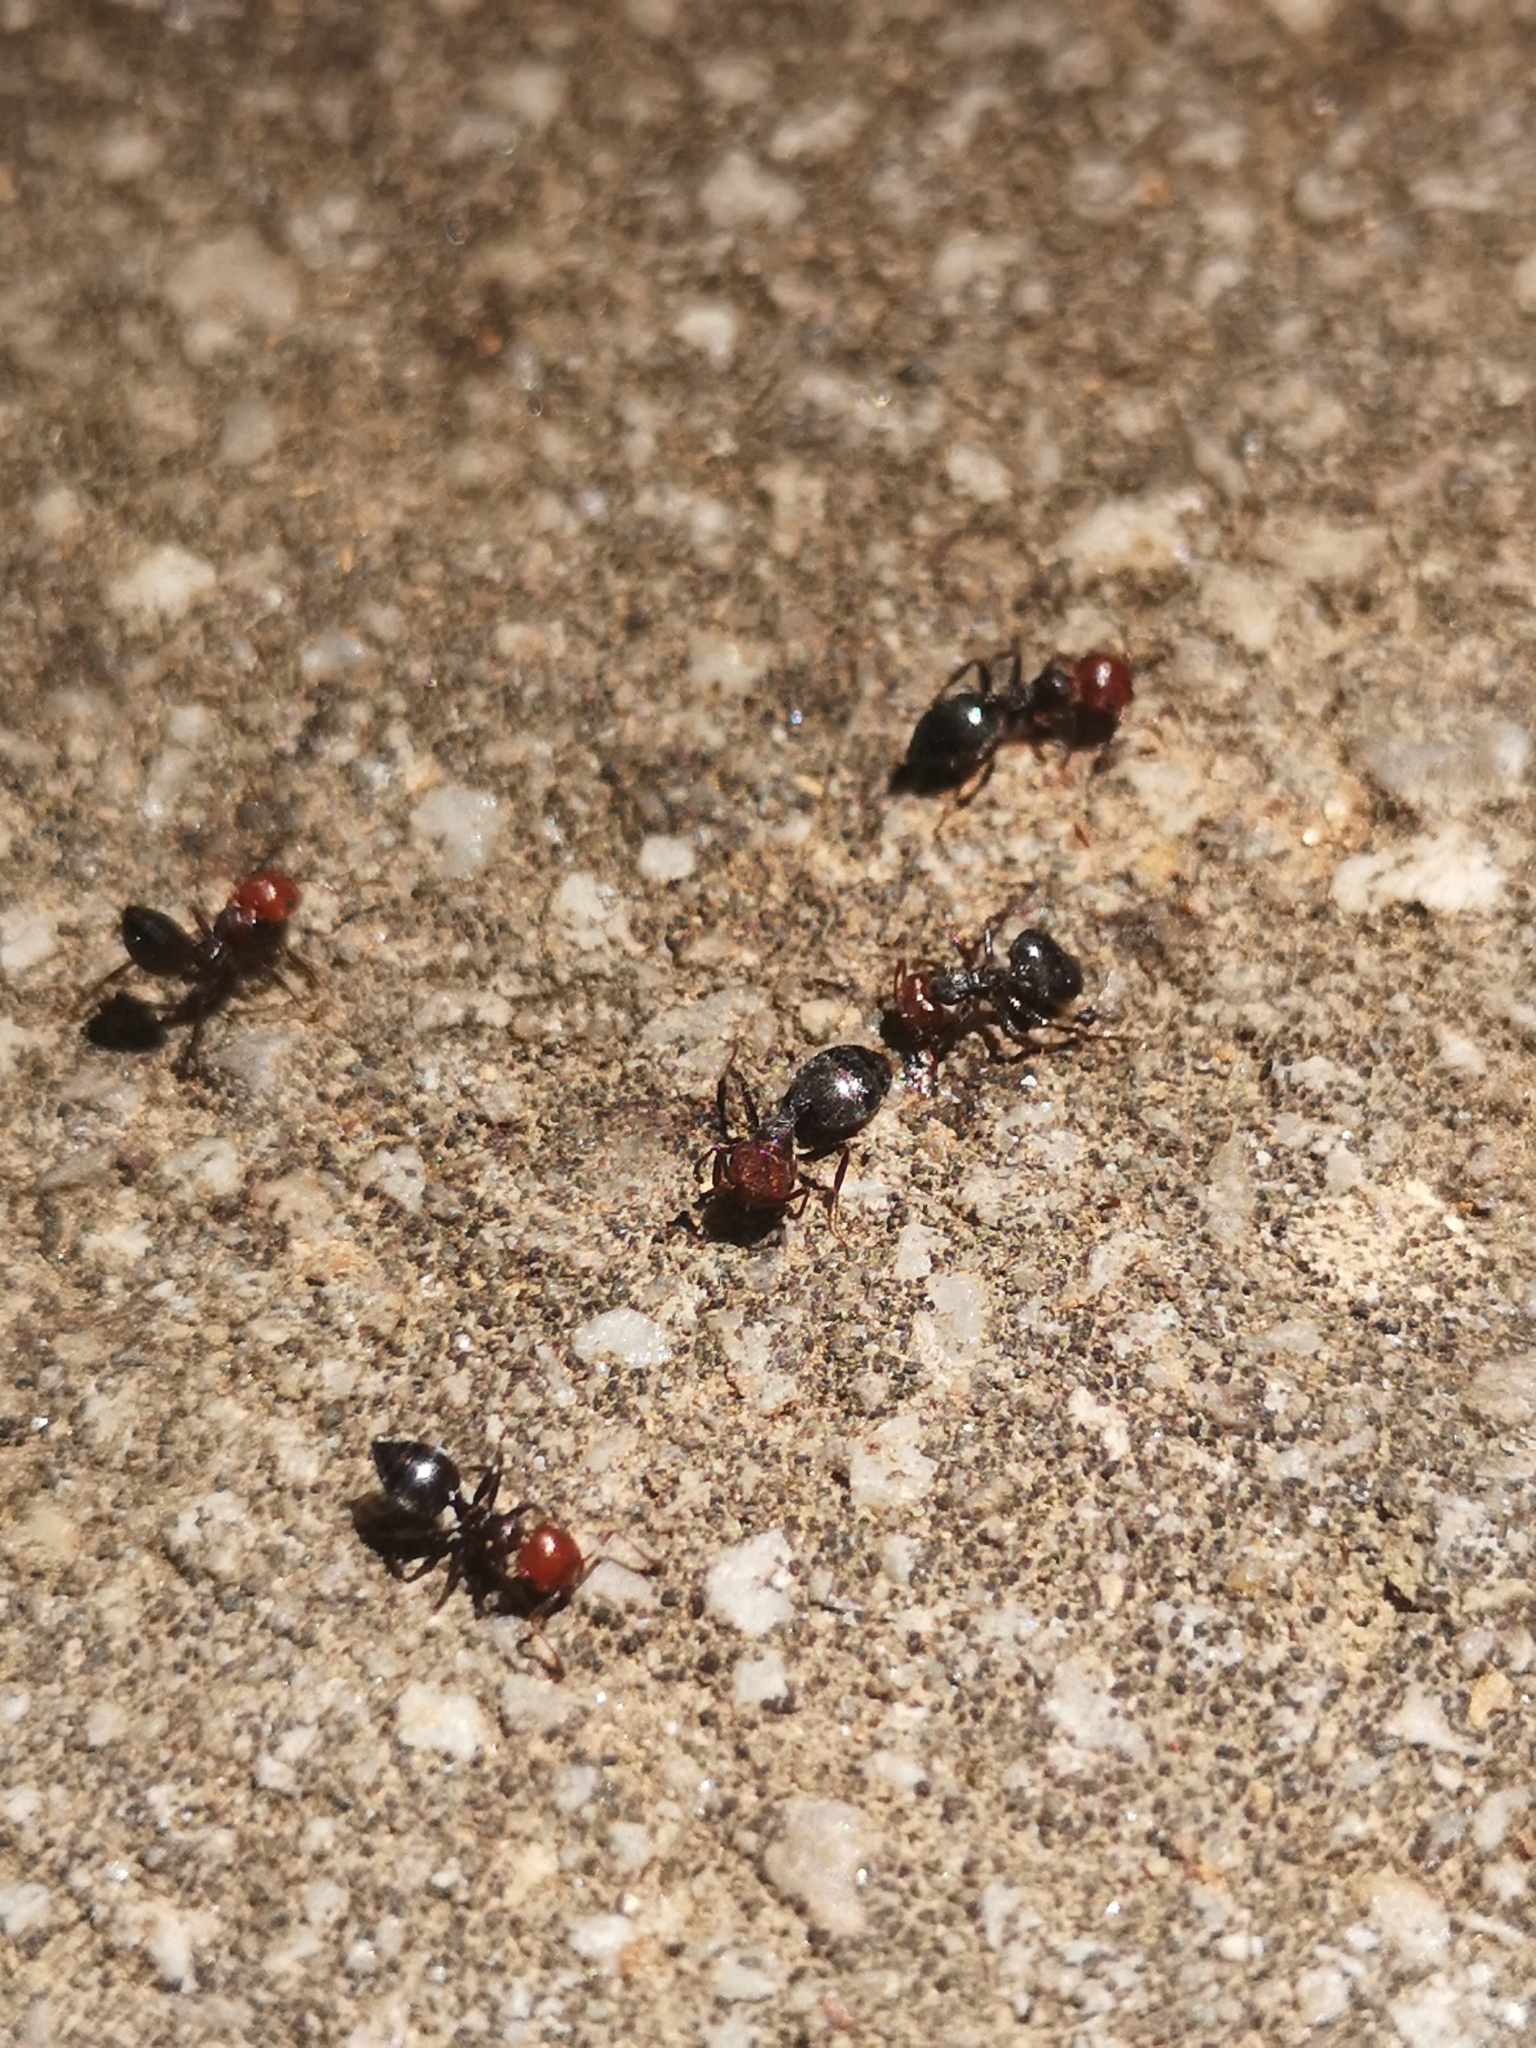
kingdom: Animalia
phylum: Arthropoda
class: Insecta
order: Hymenoptera
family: Formicidae
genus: Crematogaster
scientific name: Crematogaster scutellaris
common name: Fourmi du liège
